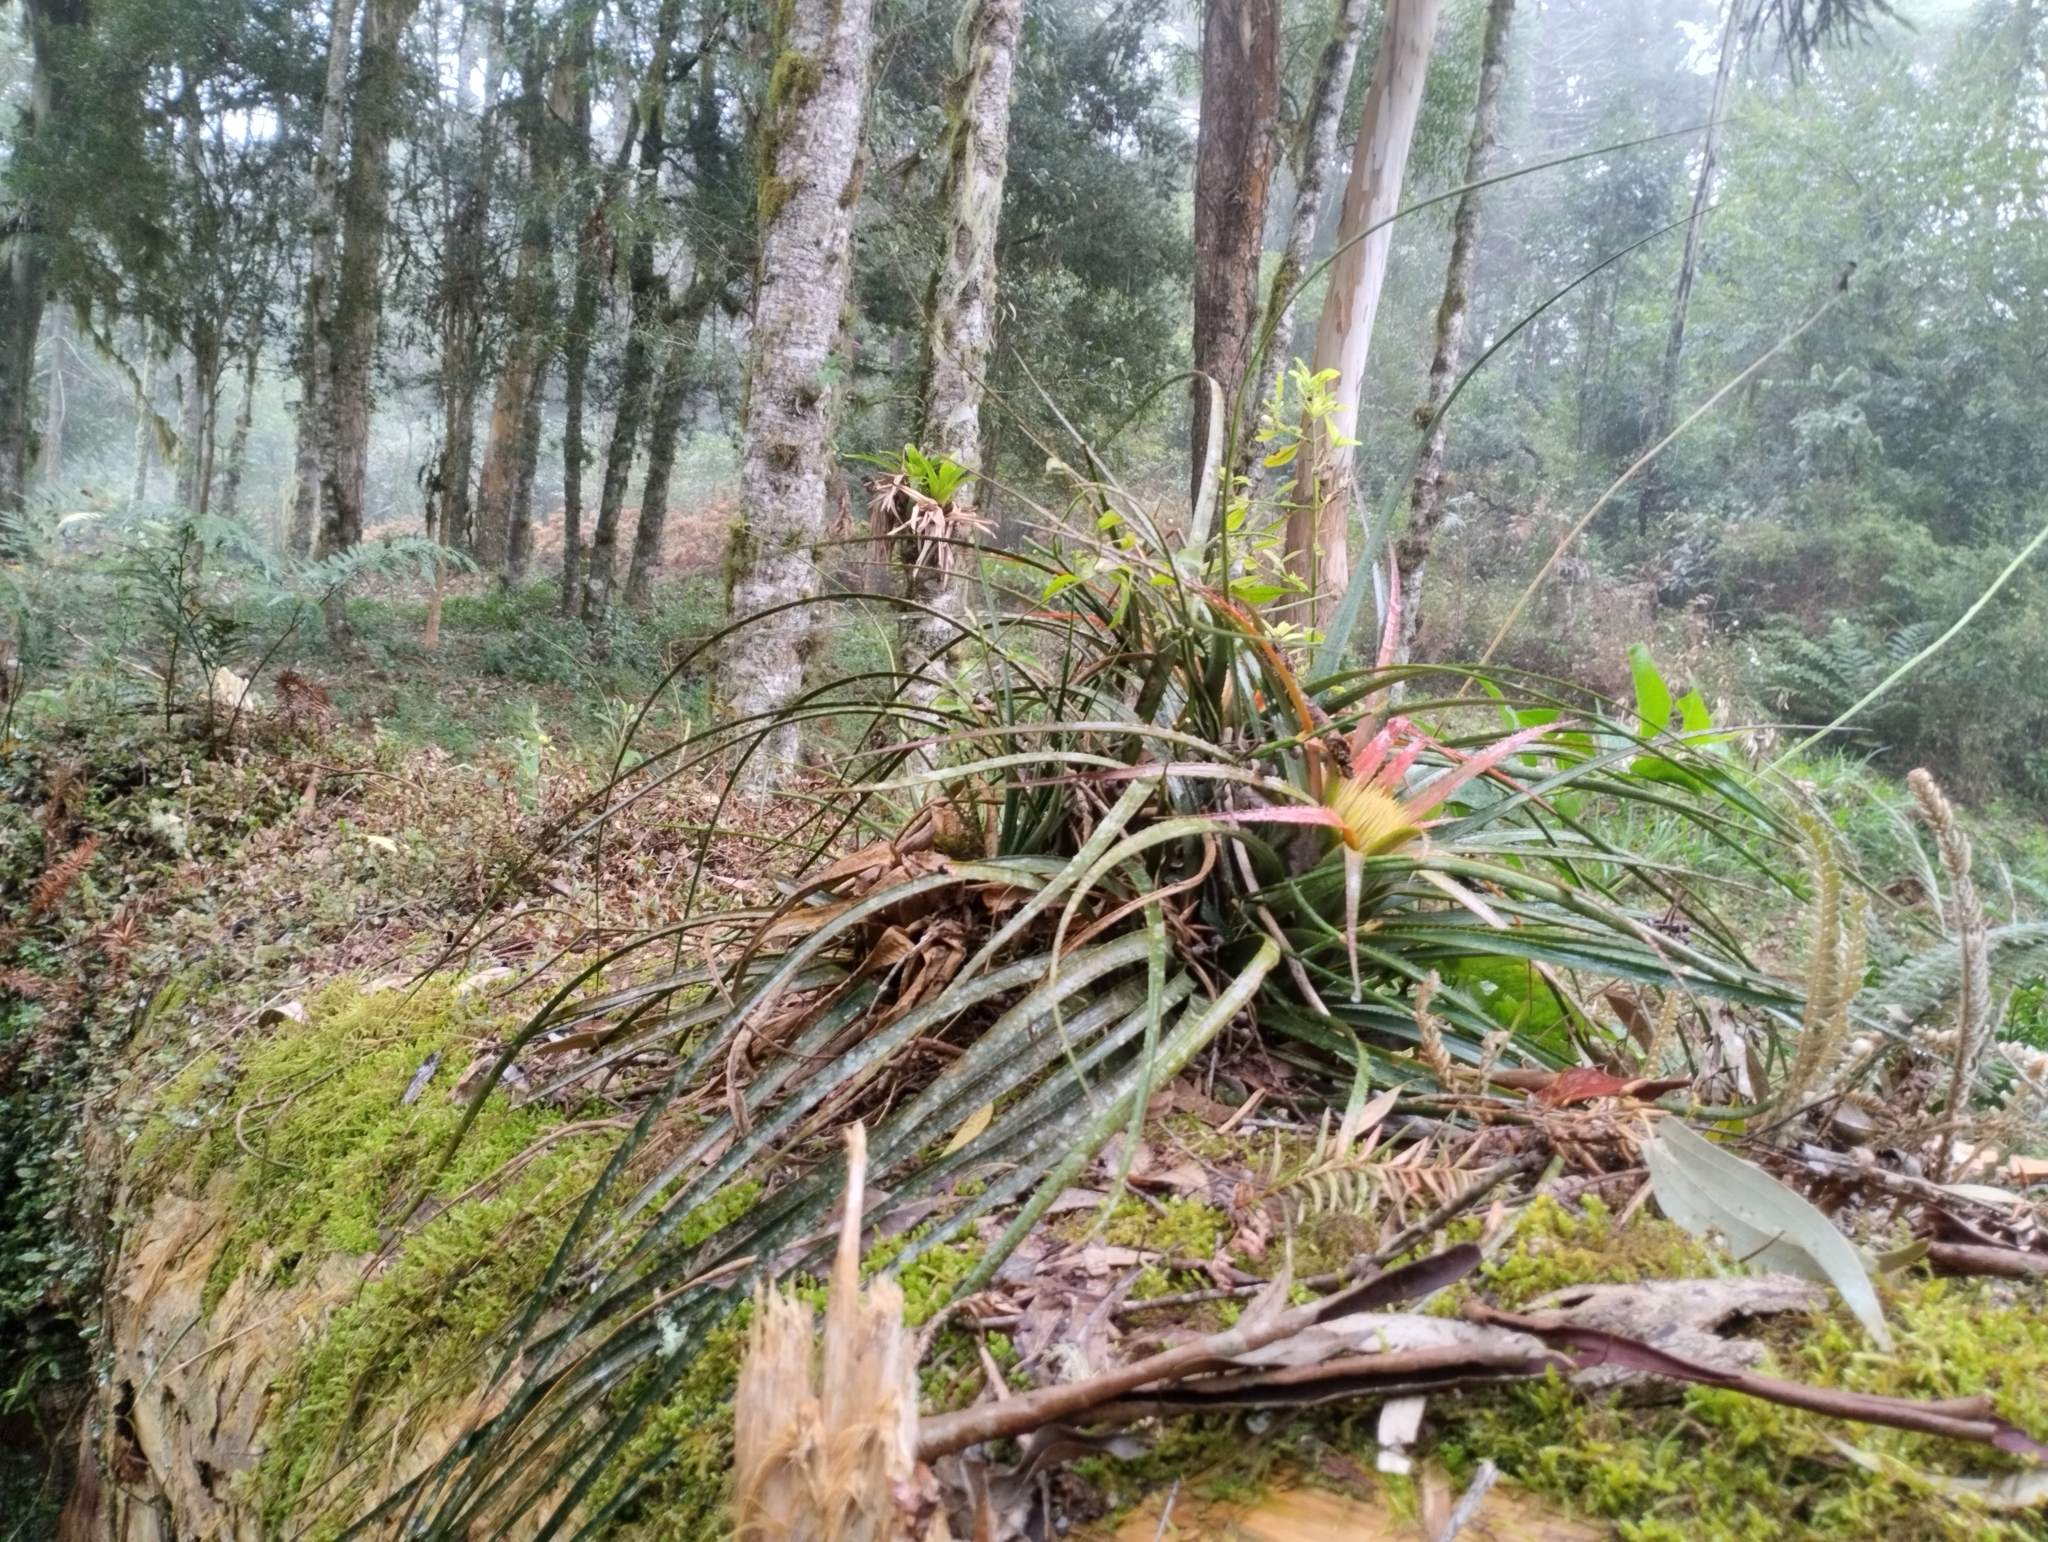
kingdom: Plantae
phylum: Tracheophyta
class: Liliopsida
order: Poales
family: Bromeliaceae
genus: Aechmea
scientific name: Aechmea recurvata
